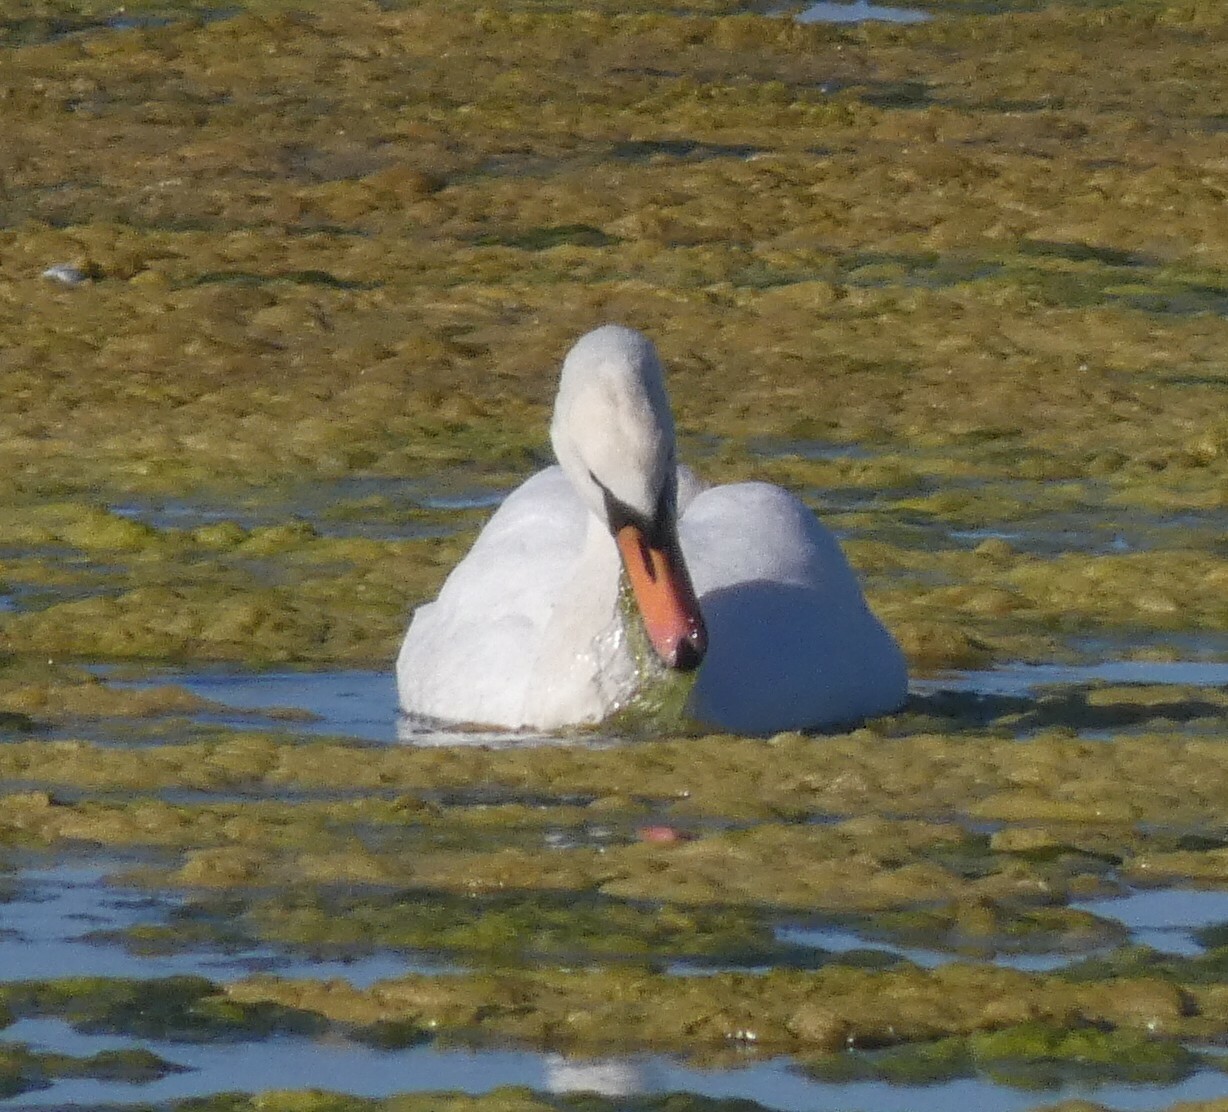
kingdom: Animalia
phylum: Chordata
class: Aves
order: Anseriformes
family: Anatidae
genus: Cygnus
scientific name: Cygnus olor
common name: Mute swan
